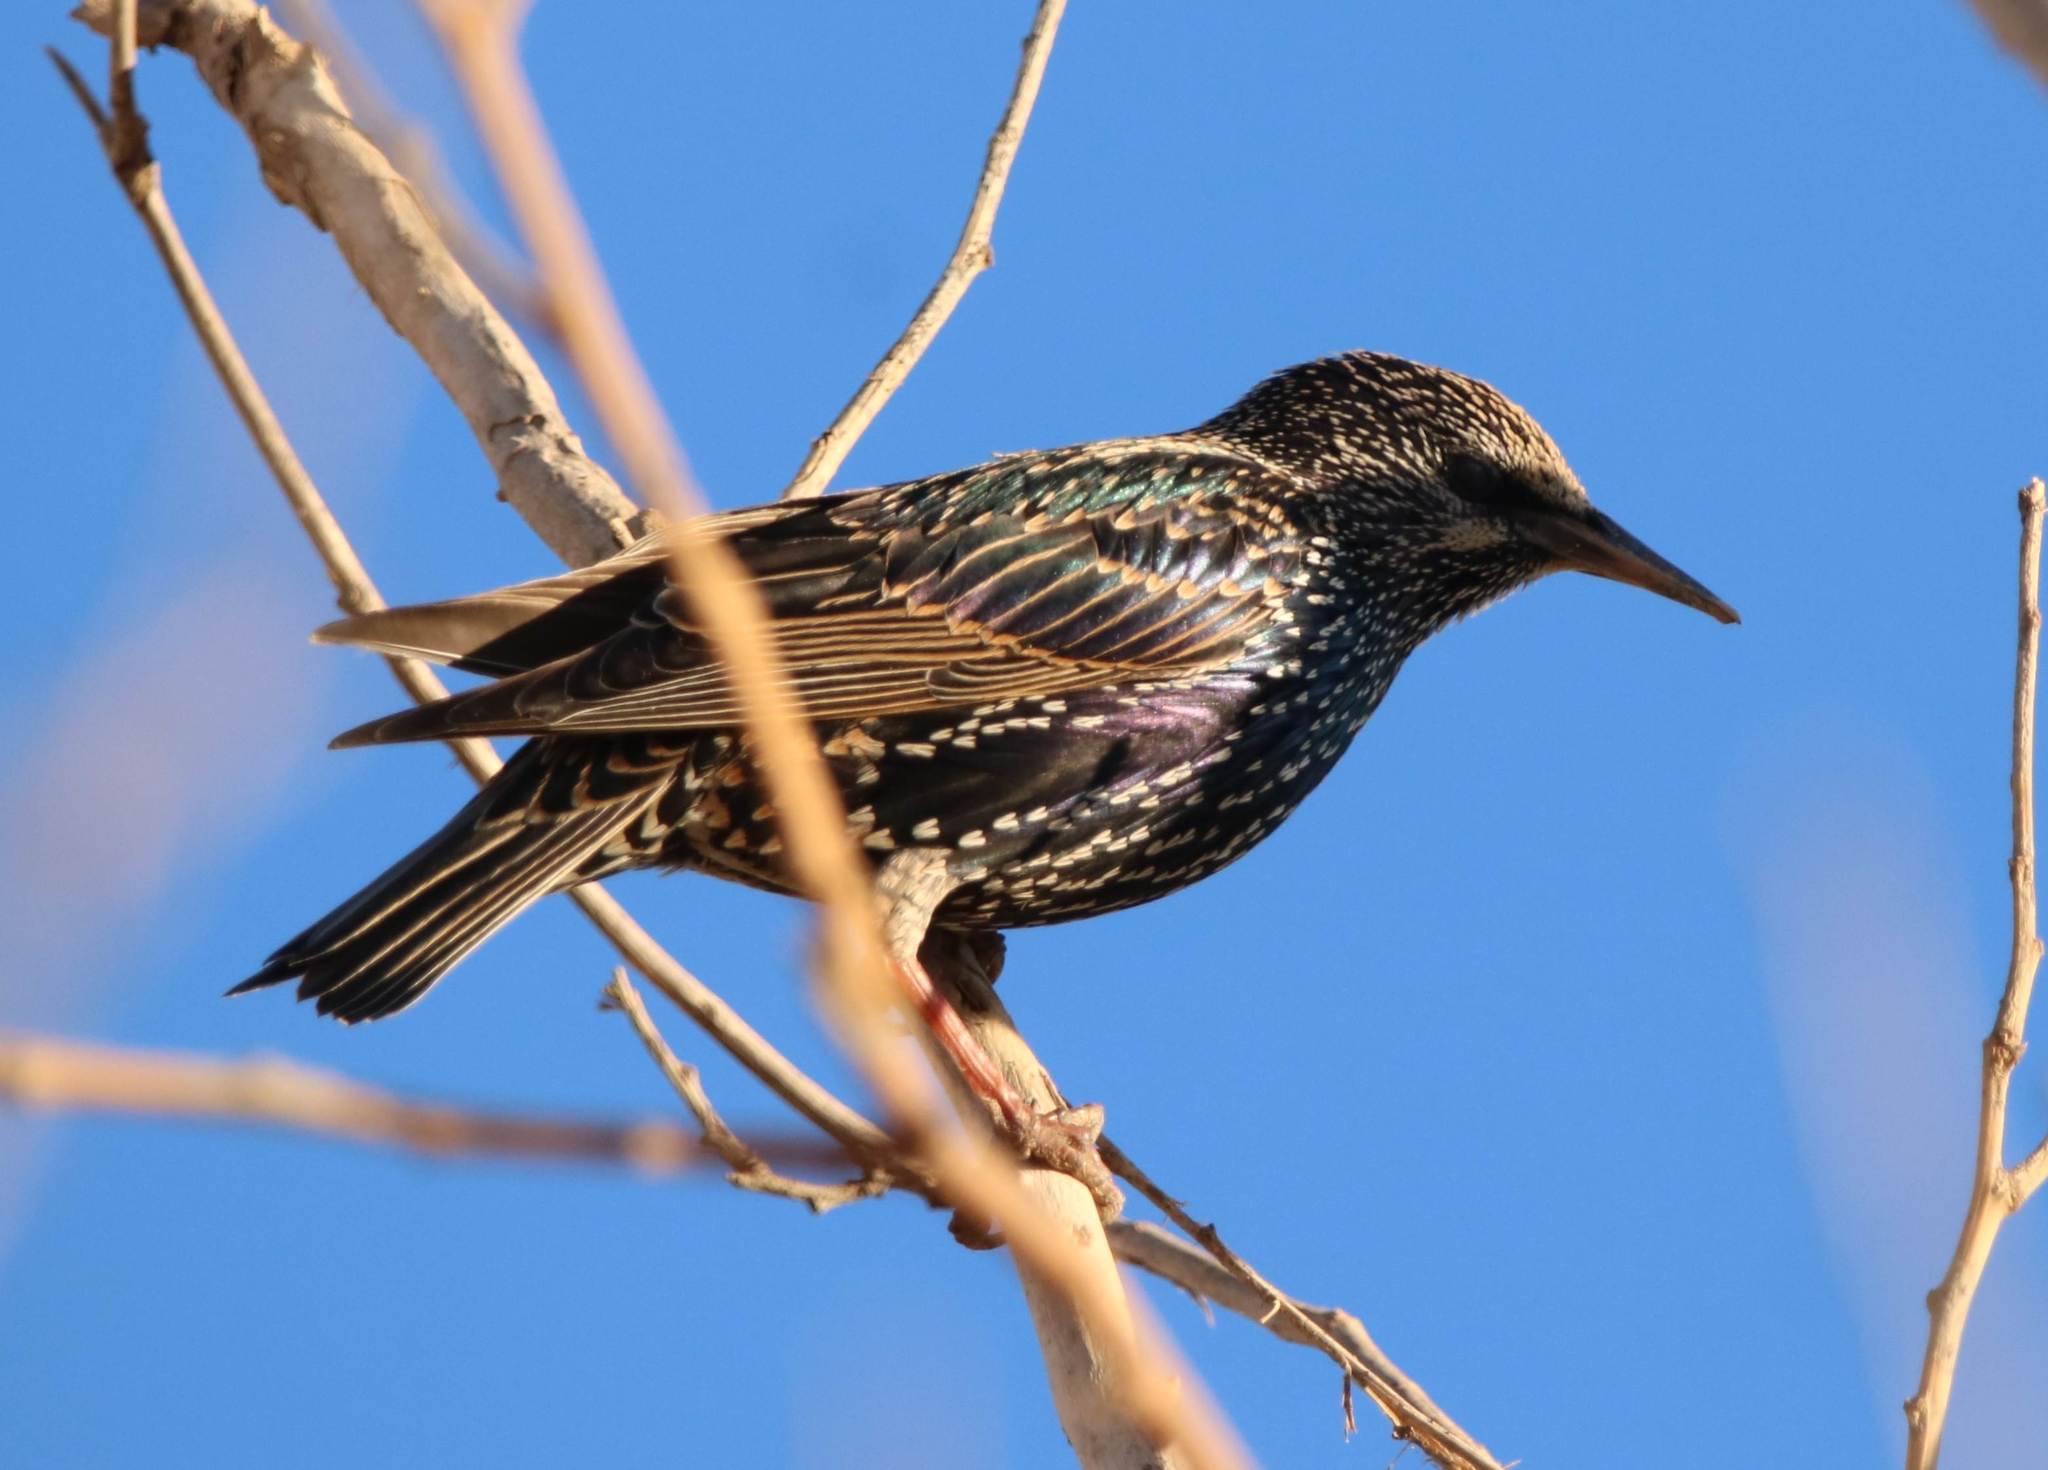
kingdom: Animalia
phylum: Chordata
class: Aves
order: Passeriformes
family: Sturnidae
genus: Sturnus
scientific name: Sturnus vulgaris
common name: Common starling
